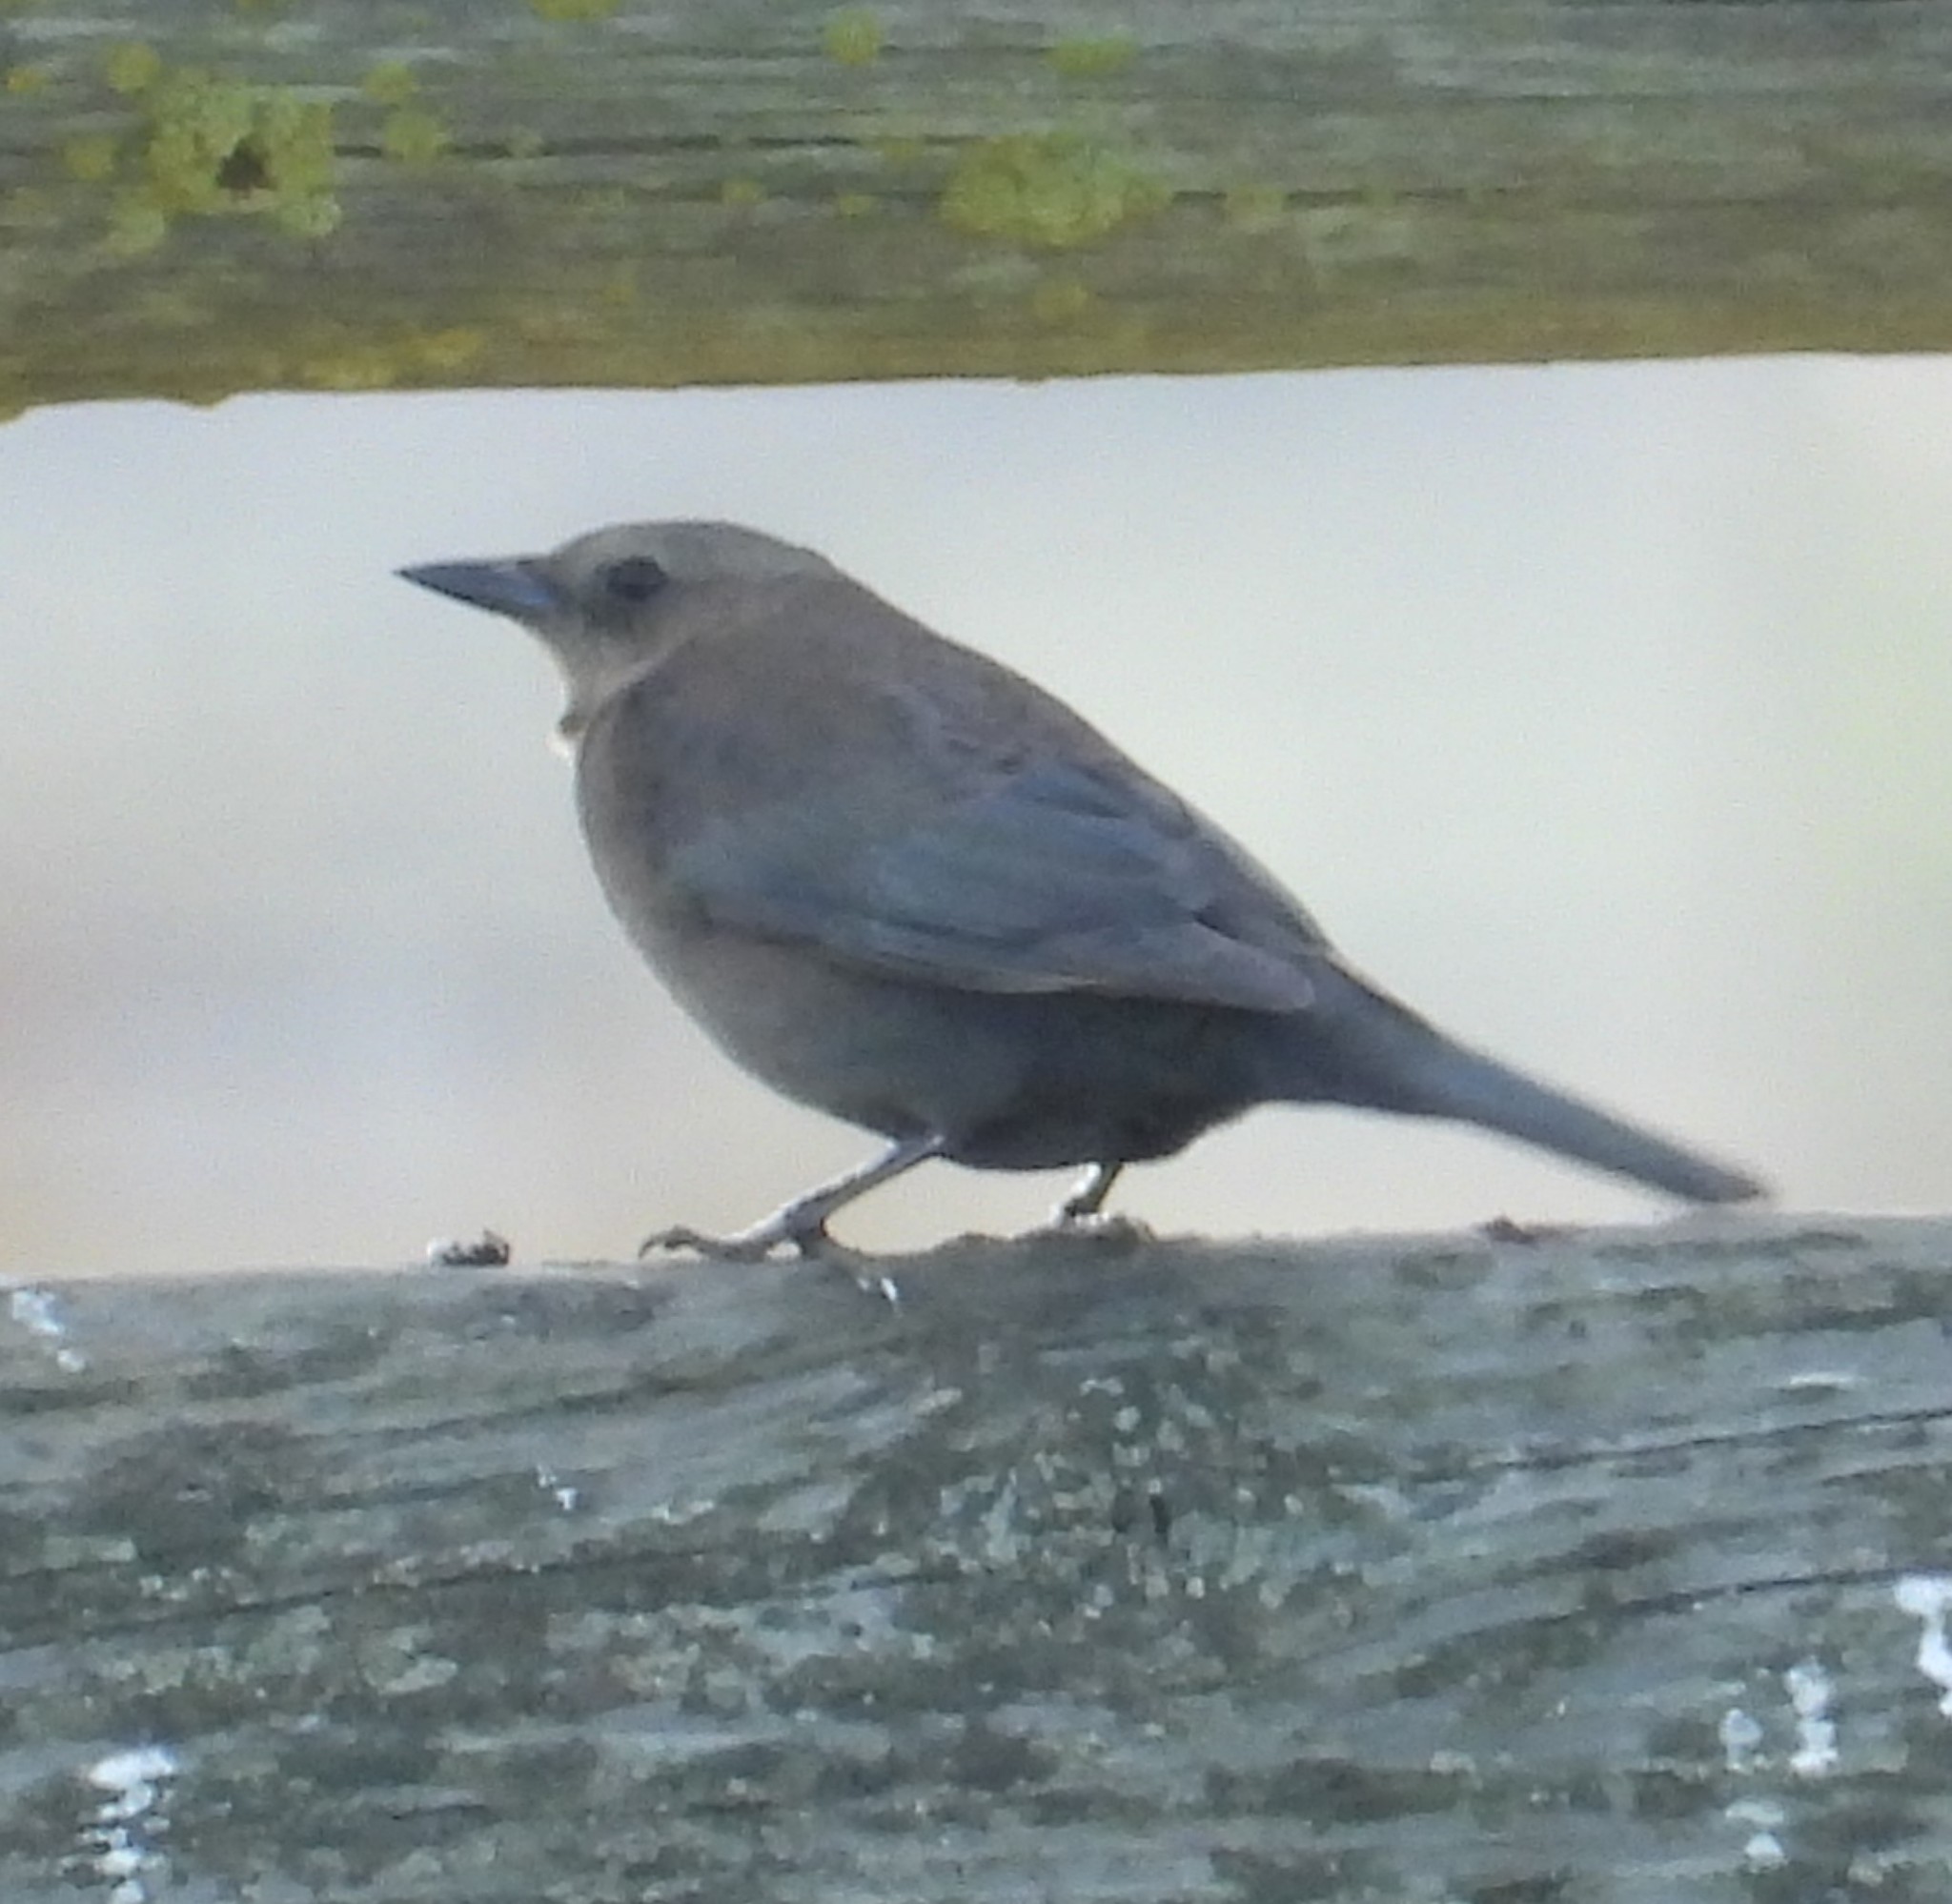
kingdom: Animalia
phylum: Chordata
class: Aves
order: Passeriformes
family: Icteridae
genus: Euphagus
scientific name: Euphagus cyanocephalus
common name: Brewer's blackbird
